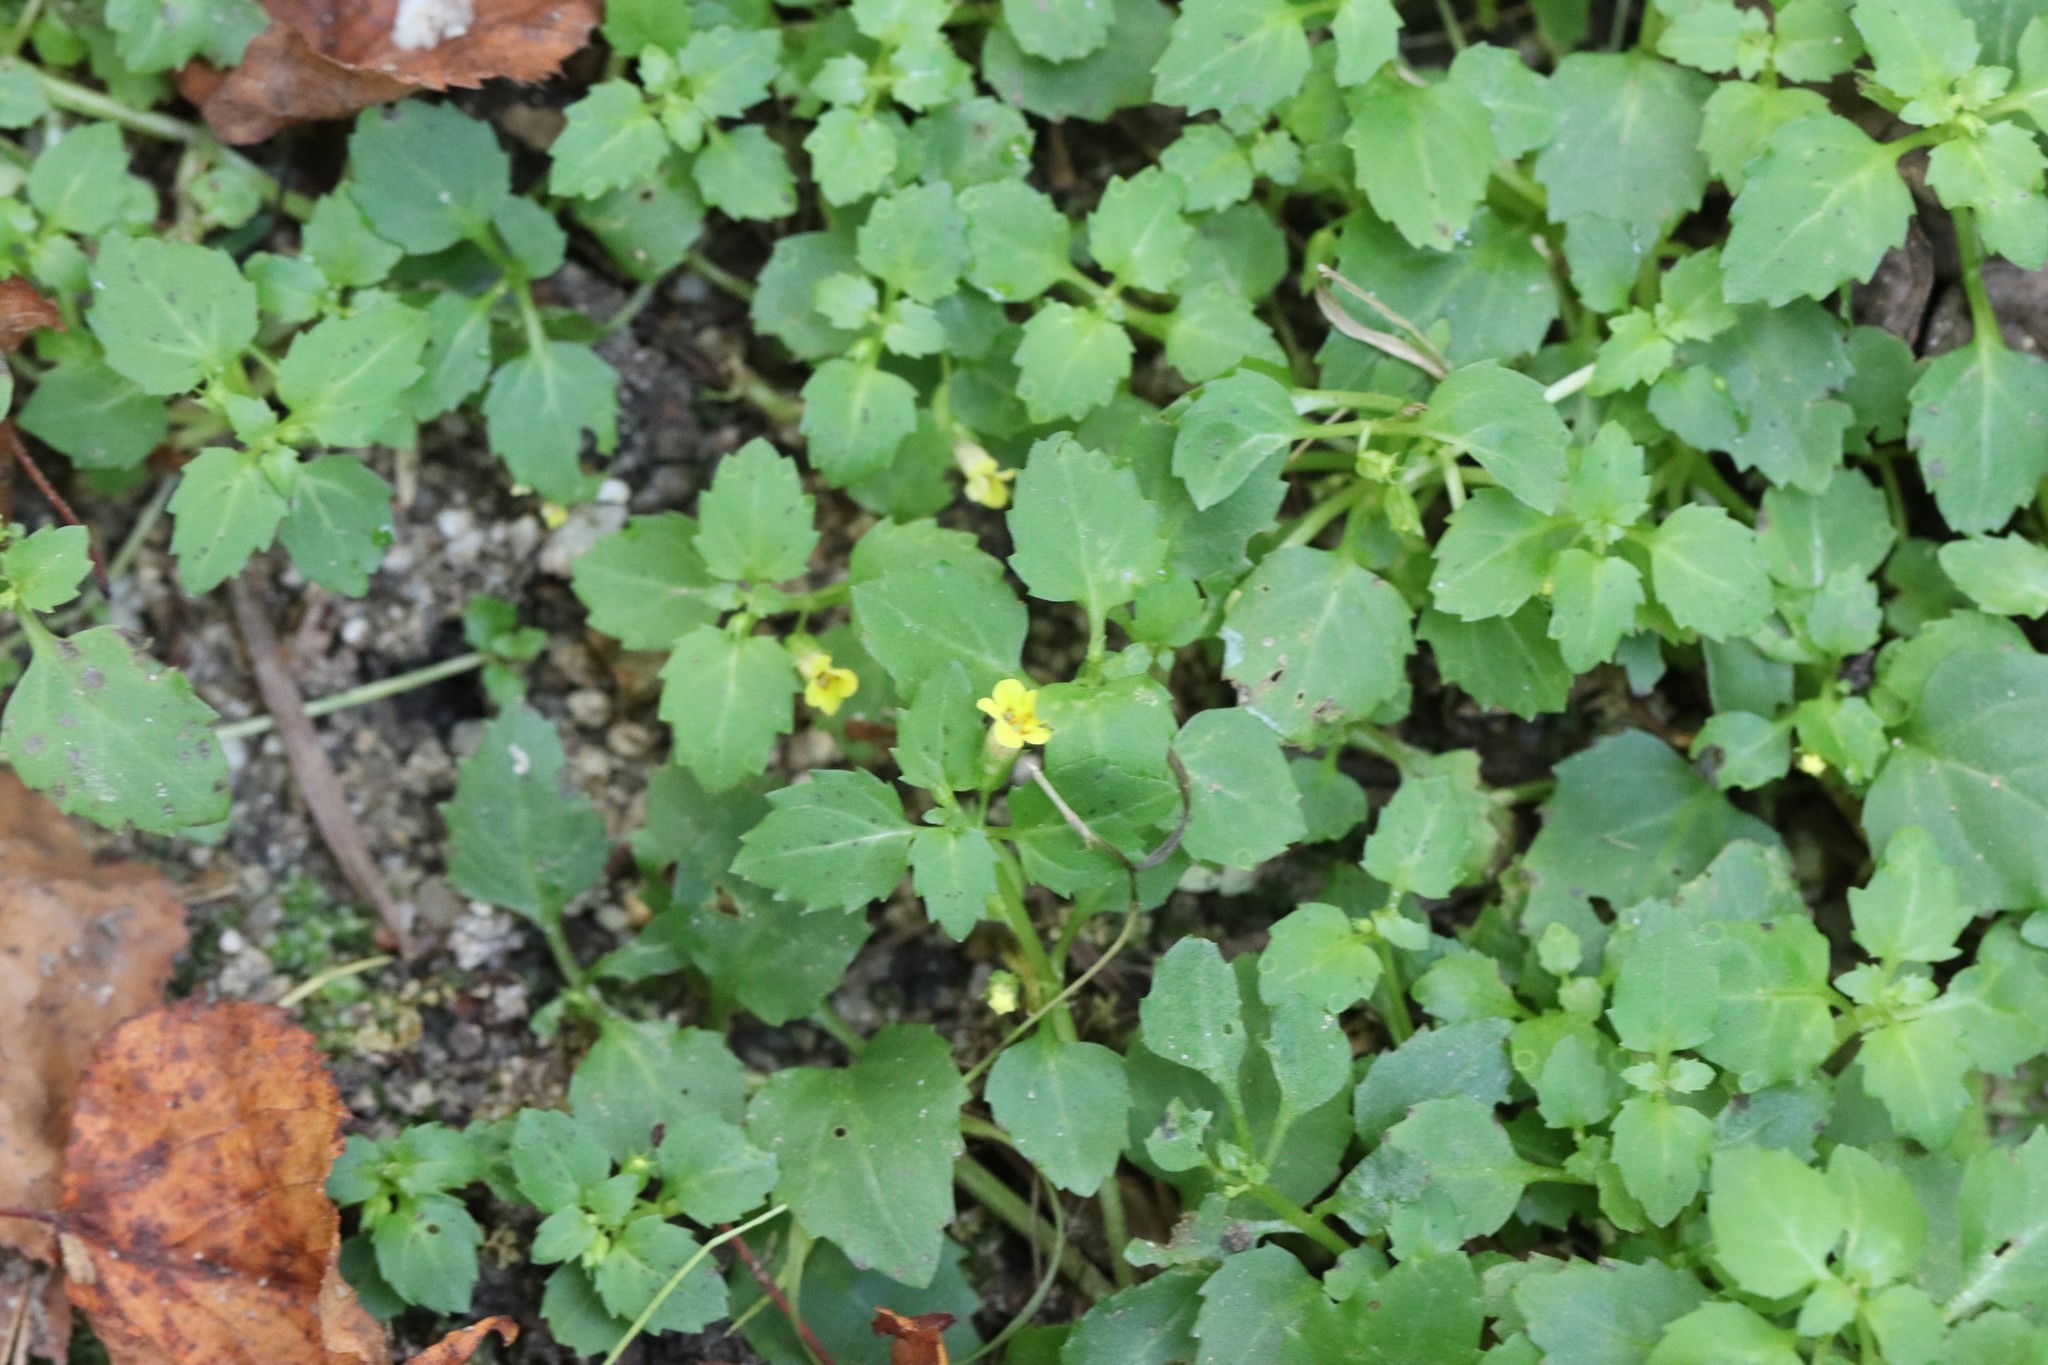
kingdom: Plantae
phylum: Tracheophyta
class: Magnoliopsida
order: Lamiales
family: Phrymaceae
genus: Erythranthe
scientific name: Erythranthe tenella
